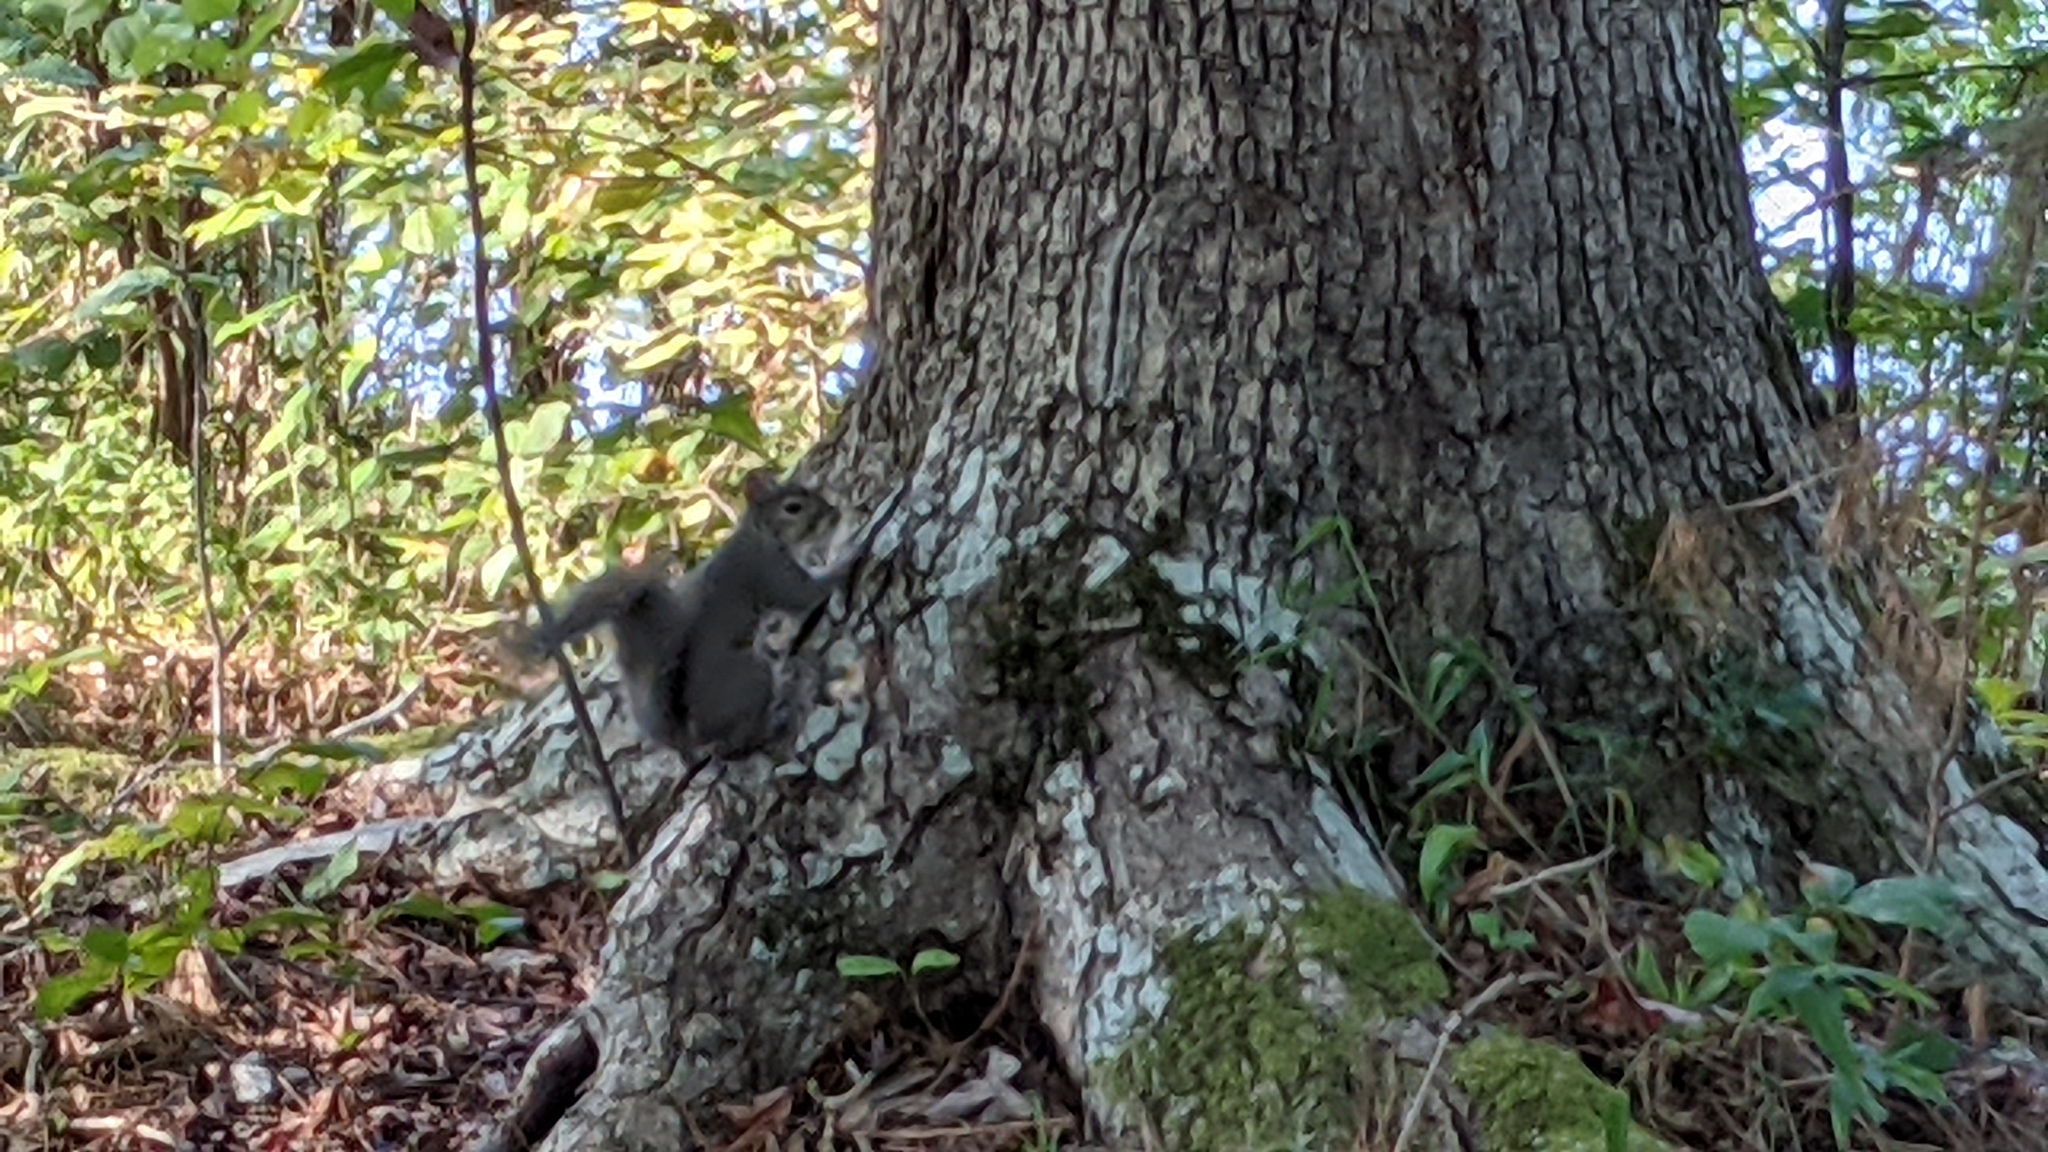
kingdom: Animalia
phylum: Chordata
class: Mammalia
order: Rodentia
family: Sciuridae
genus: Sciurus
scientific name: Sciurus carolinensis
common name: Eastern gray squirrel
